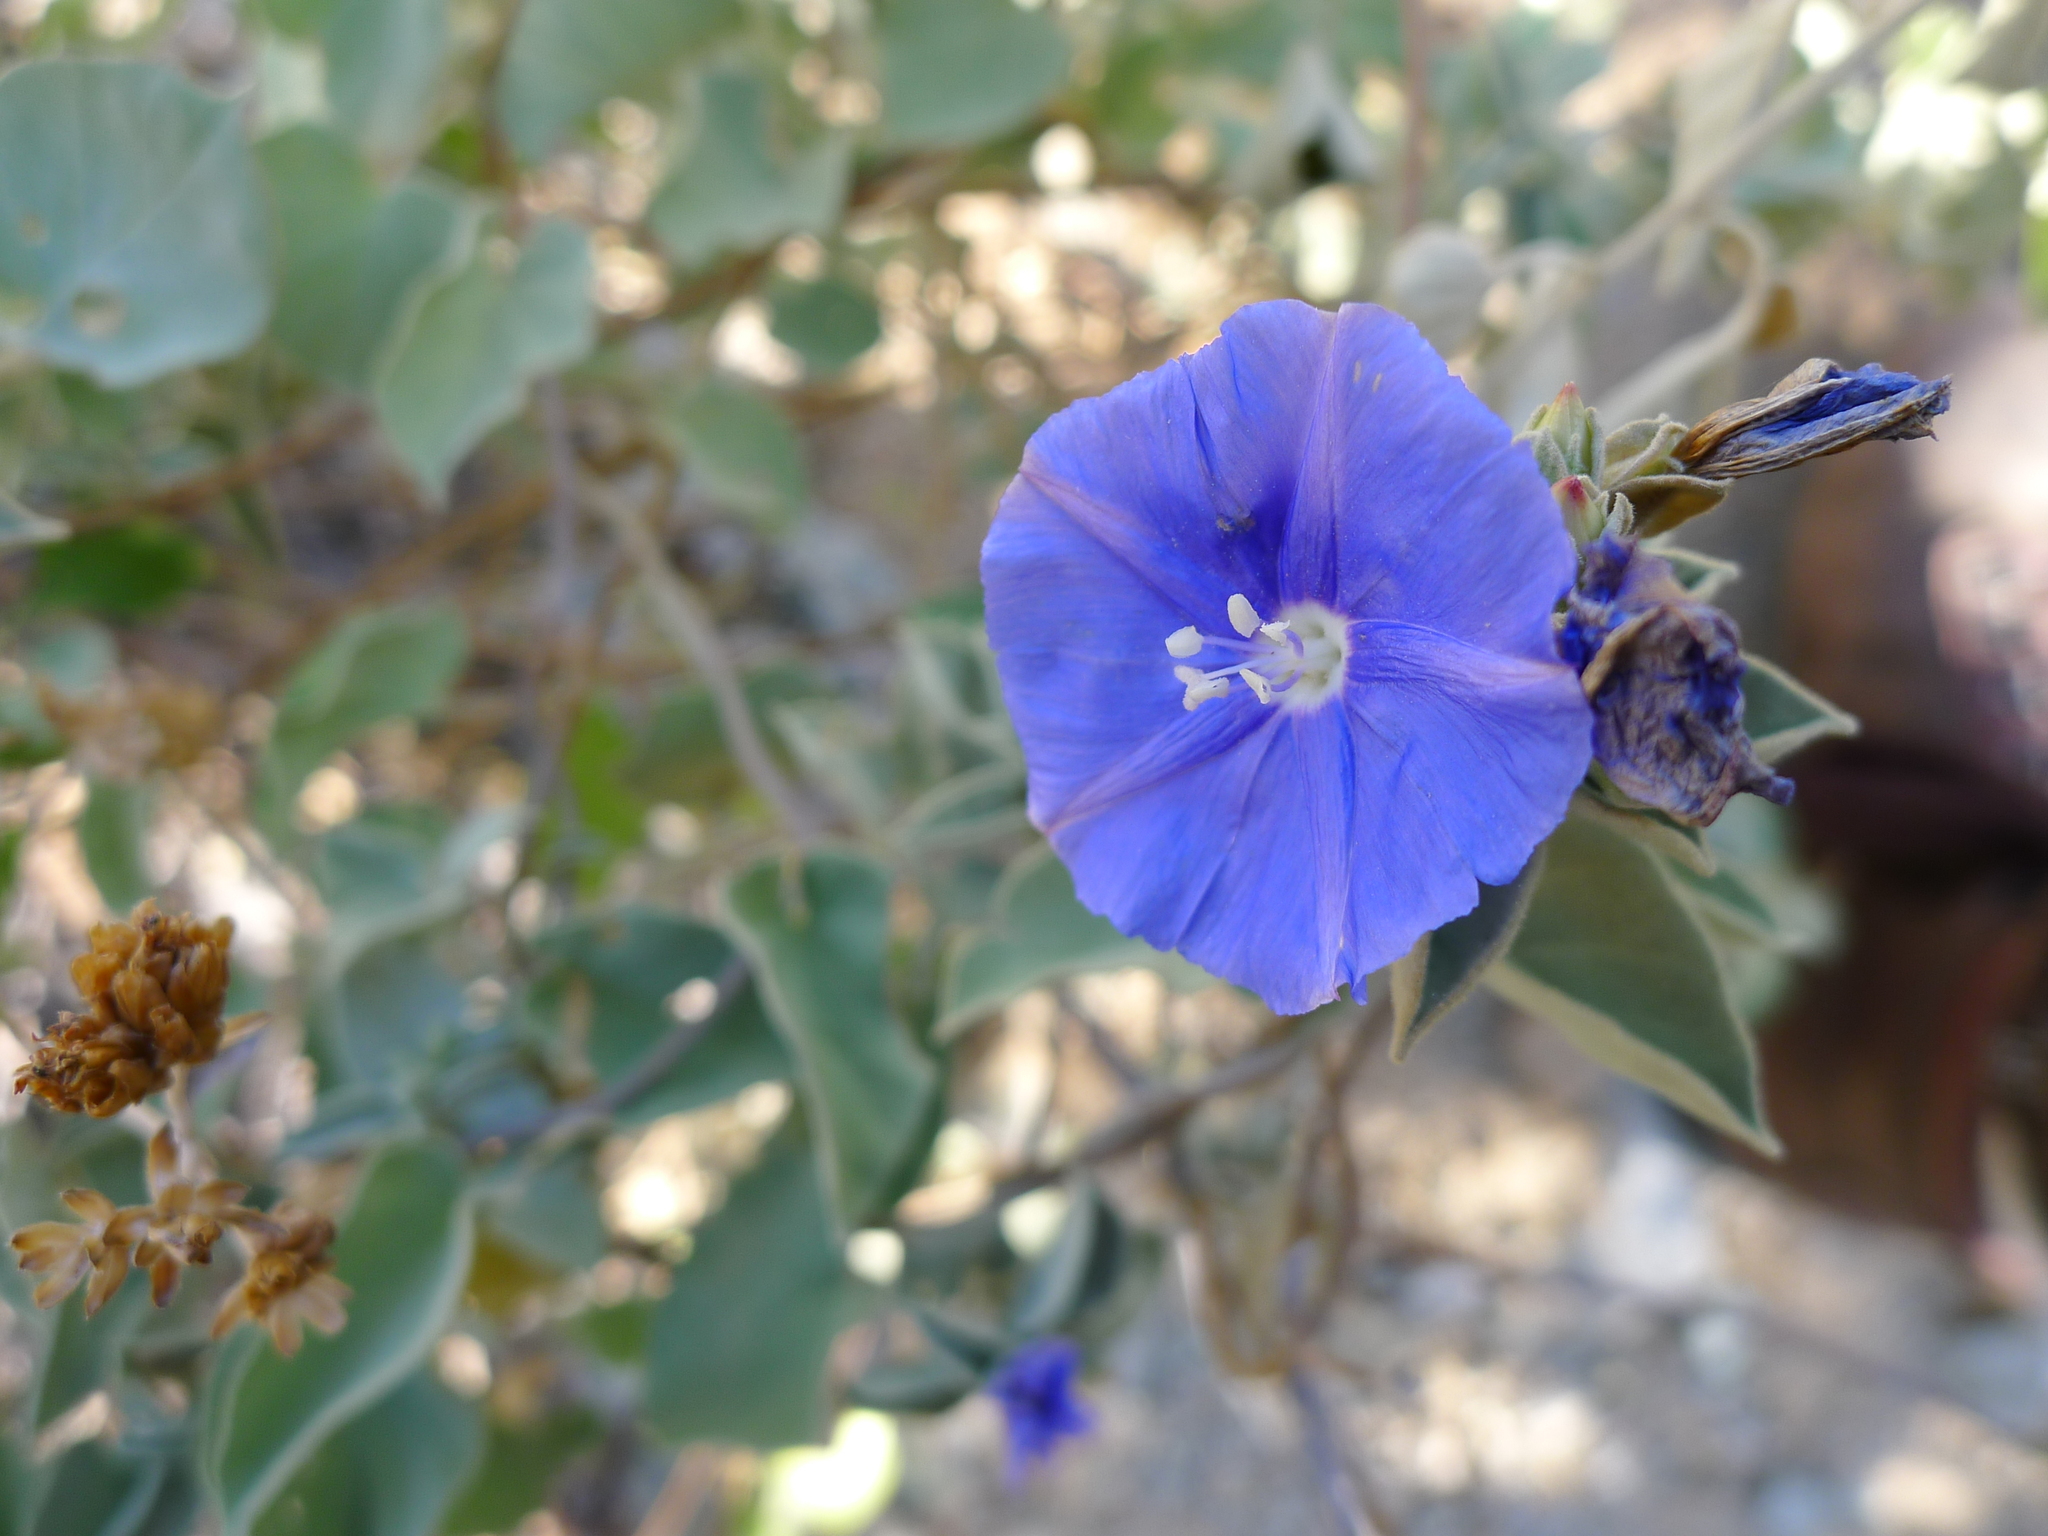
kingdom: Plantae
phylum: Tracheophyta
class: Magnoliopsida
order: Solanales
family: Convolvulaceae
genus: Jacquemontia
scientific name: Jacquemontia abutiloides
